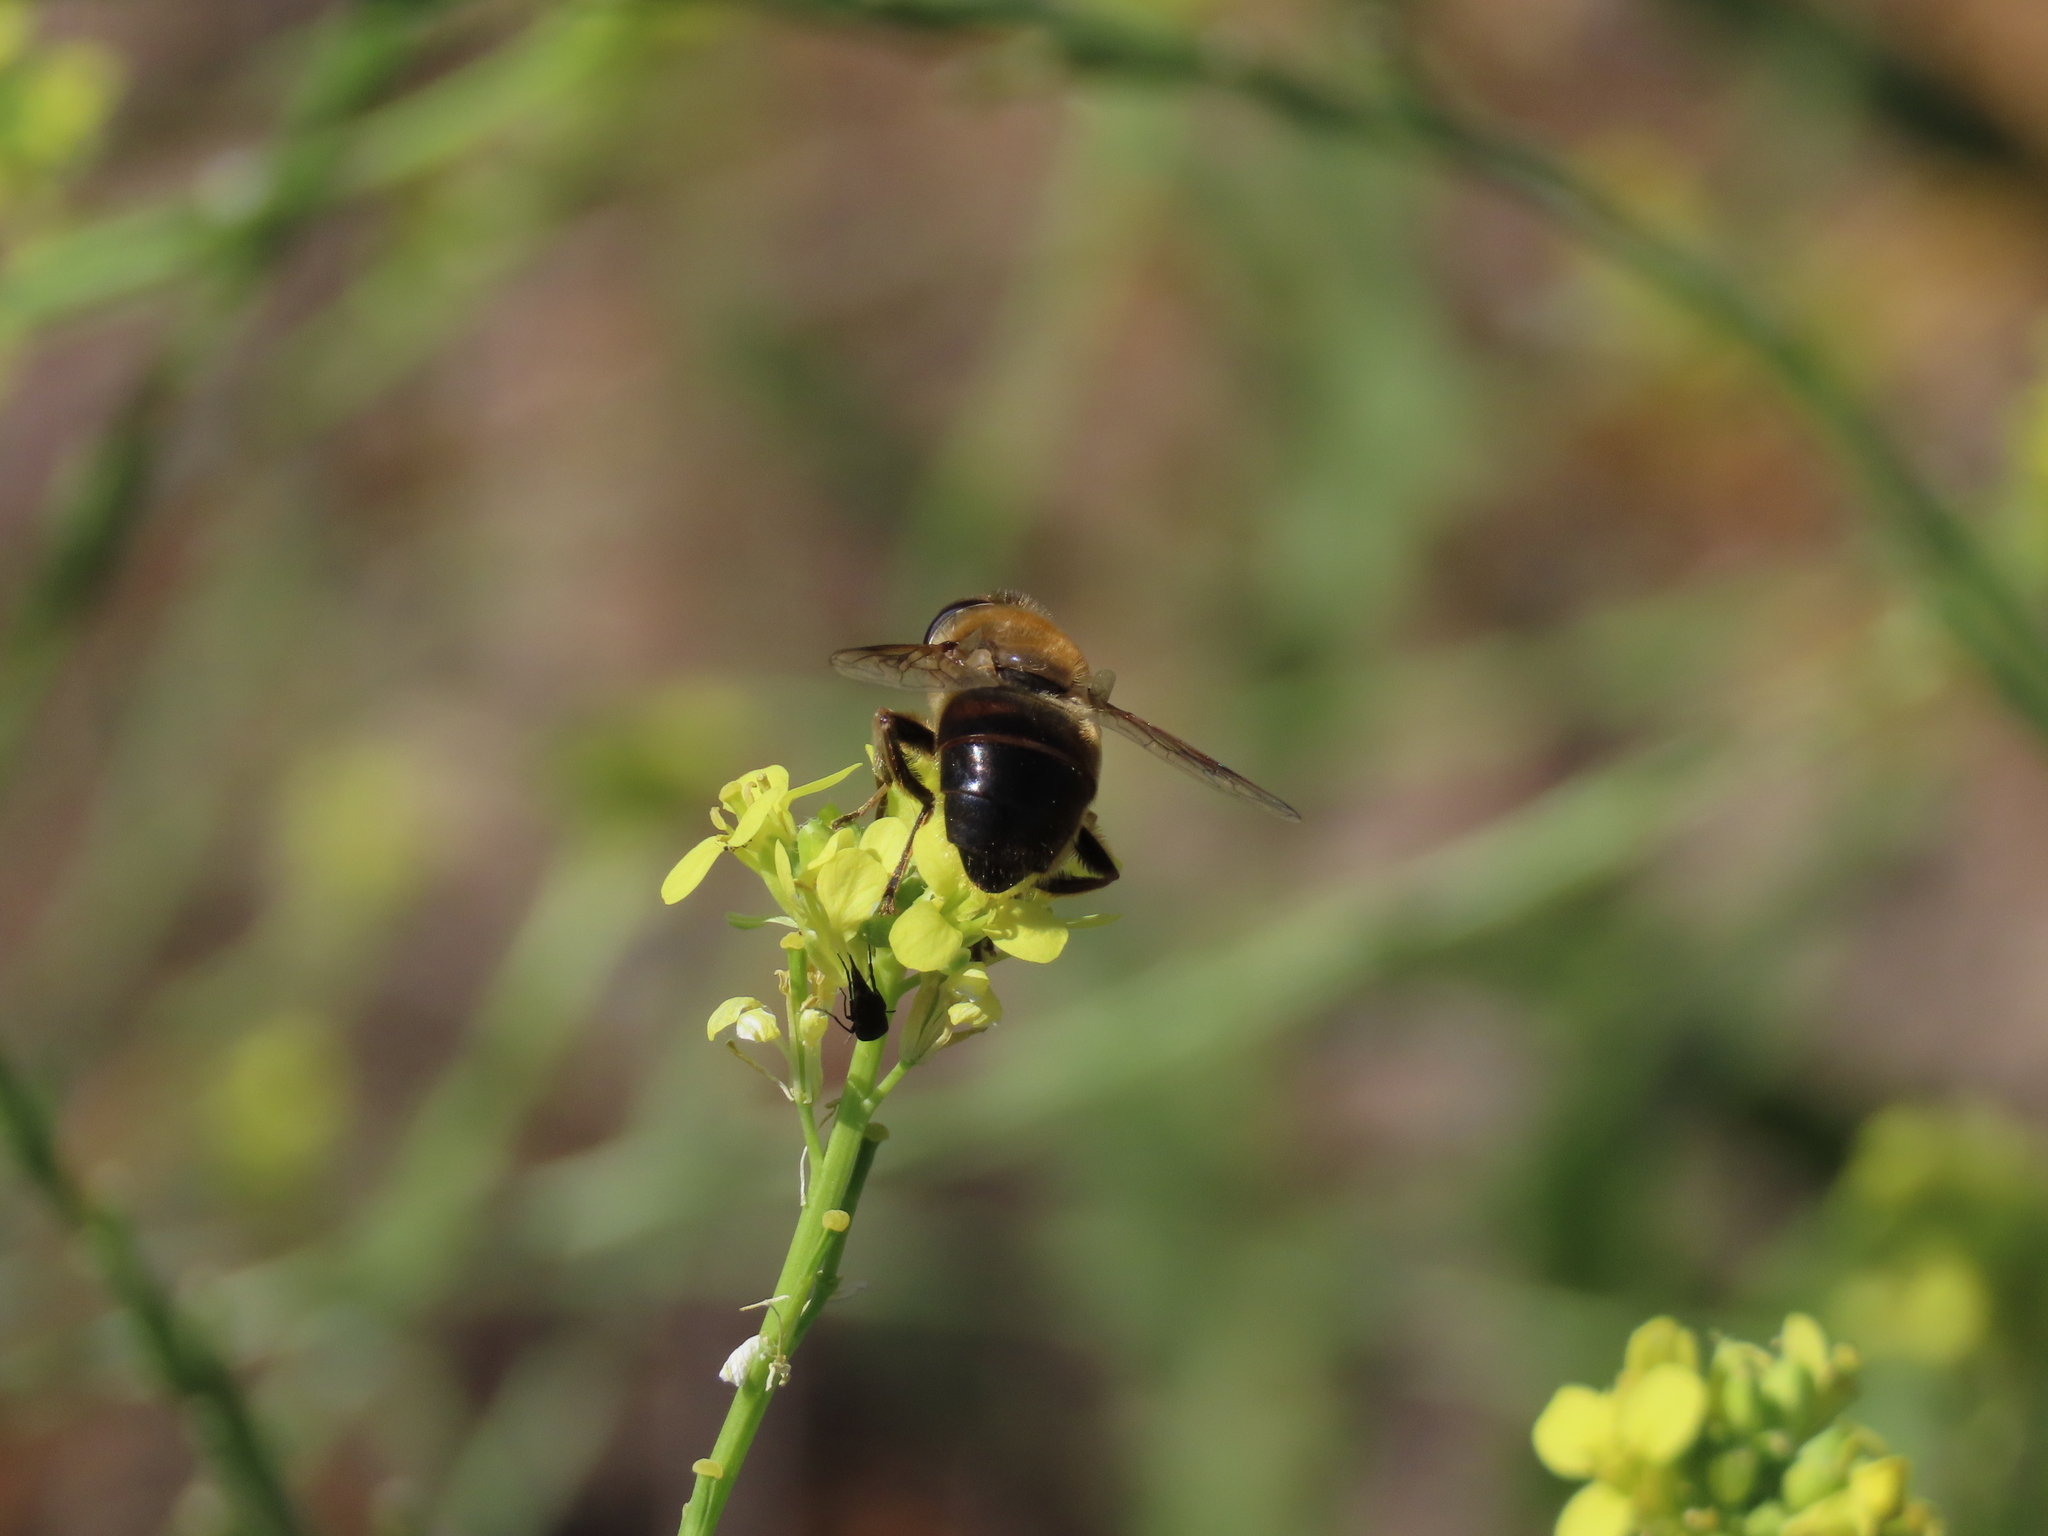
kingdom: Animalia
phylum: Arthropoda
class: Insecta
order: Diptera
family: Syrphidae
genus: Eristalis
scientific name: Eristalis tenax
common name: Drone fly
